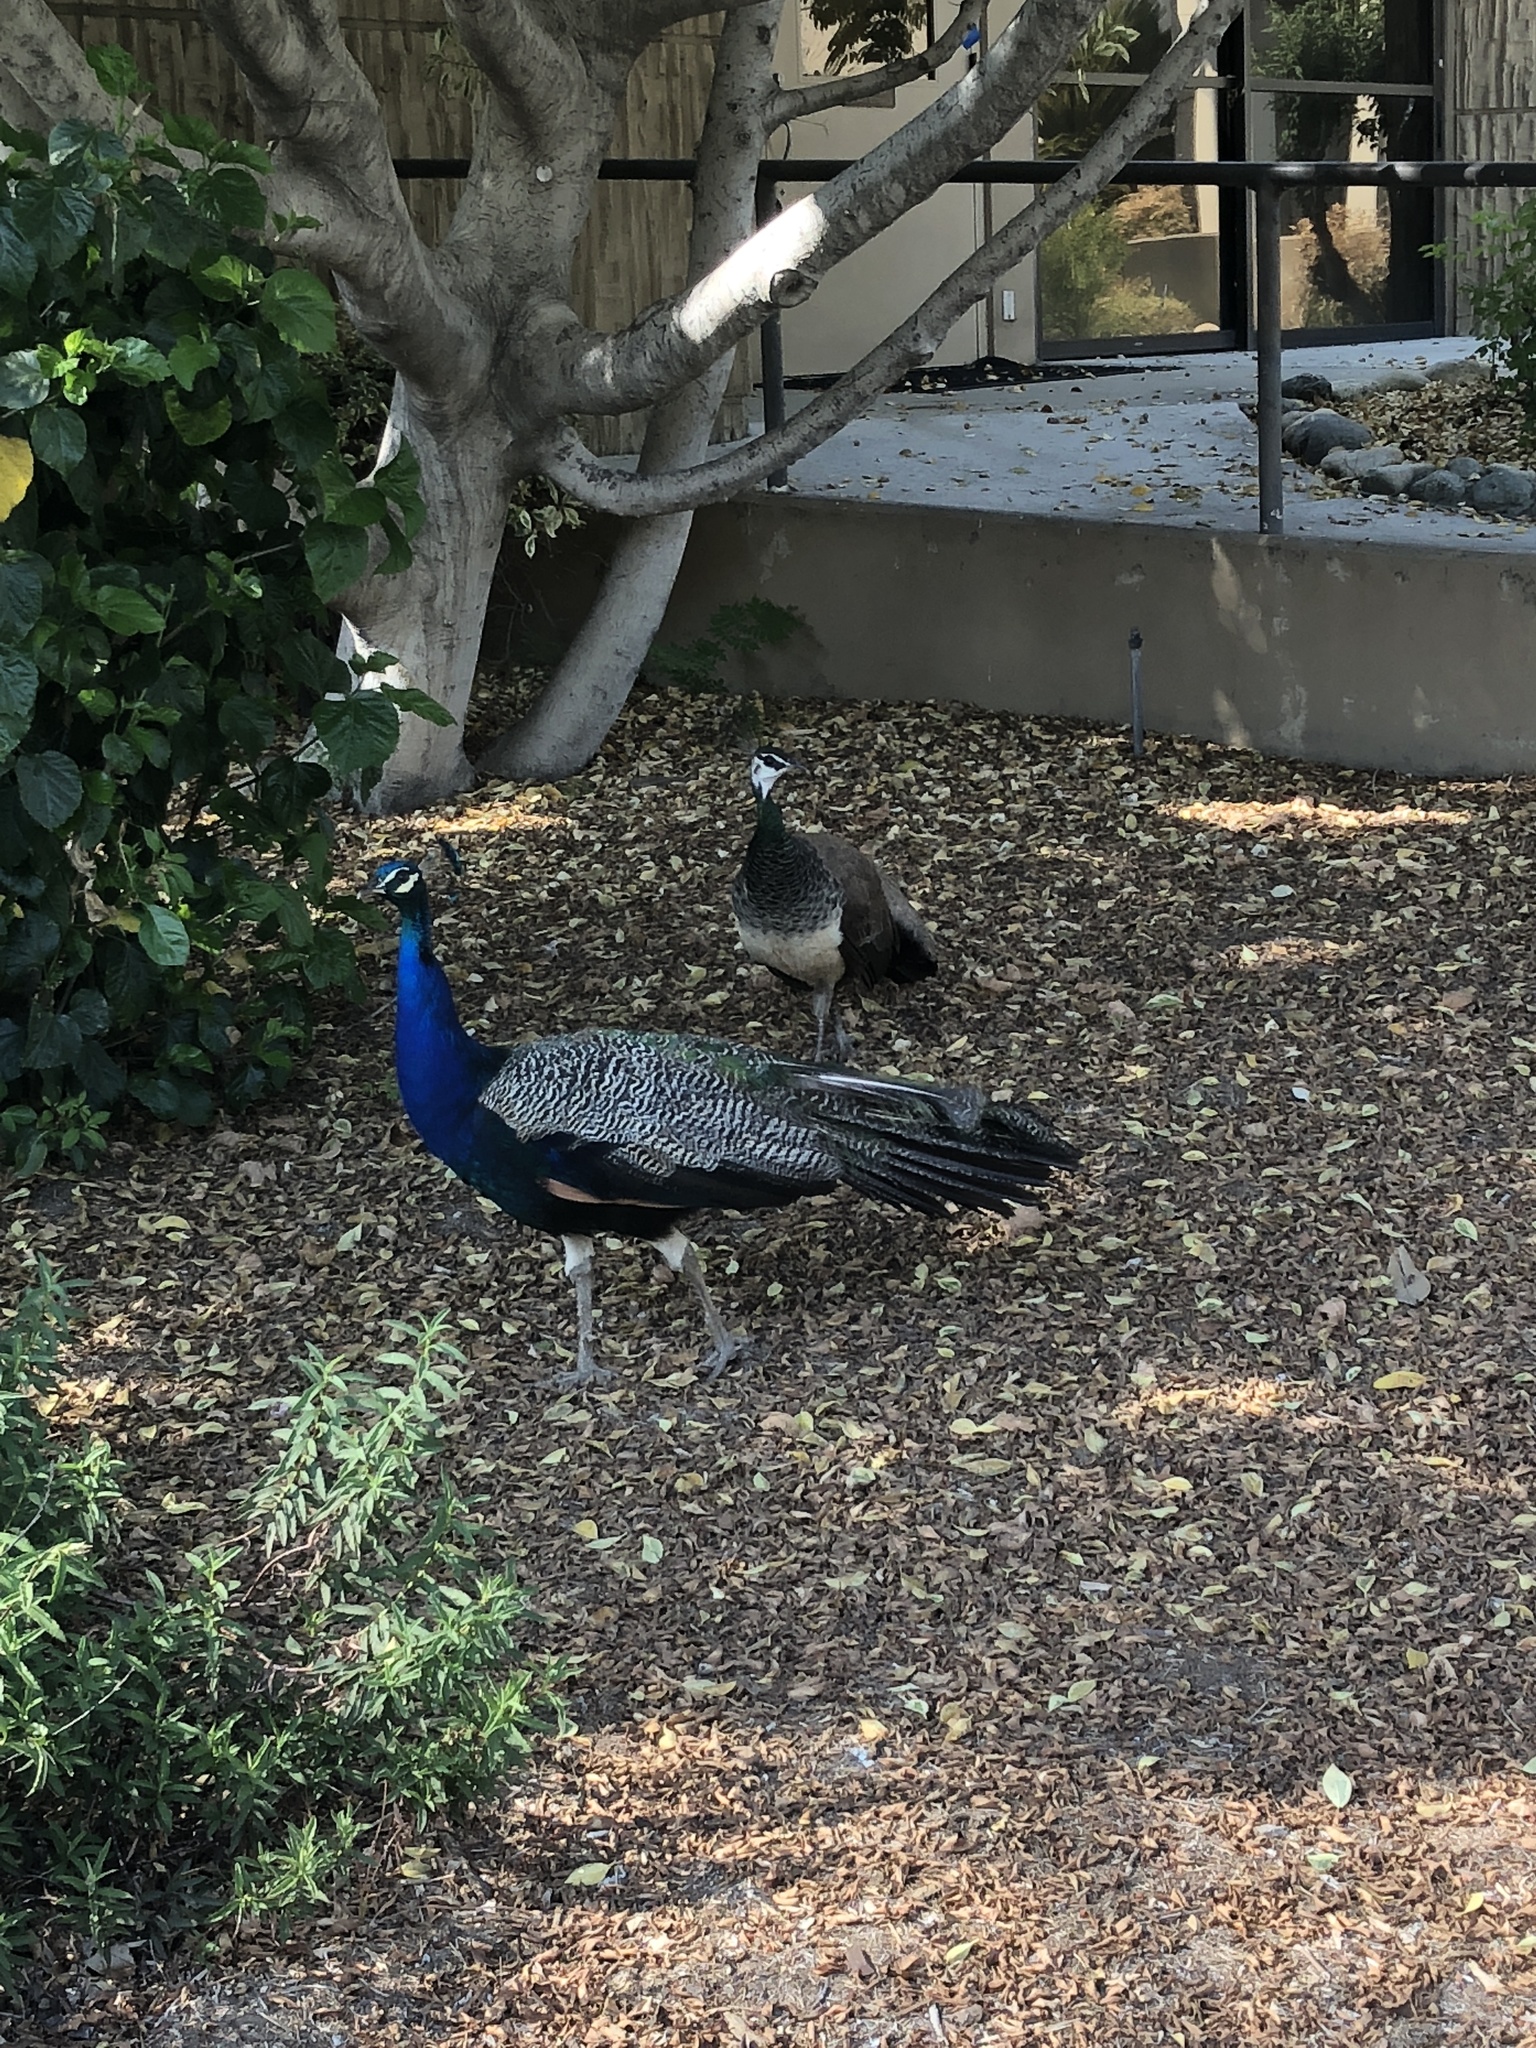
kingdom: Animalia
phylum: Chordata
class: Aves
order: Galliformes
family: Phasianidae
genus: Pavo
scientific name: Pavo cristatus
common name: Indian peafowl
